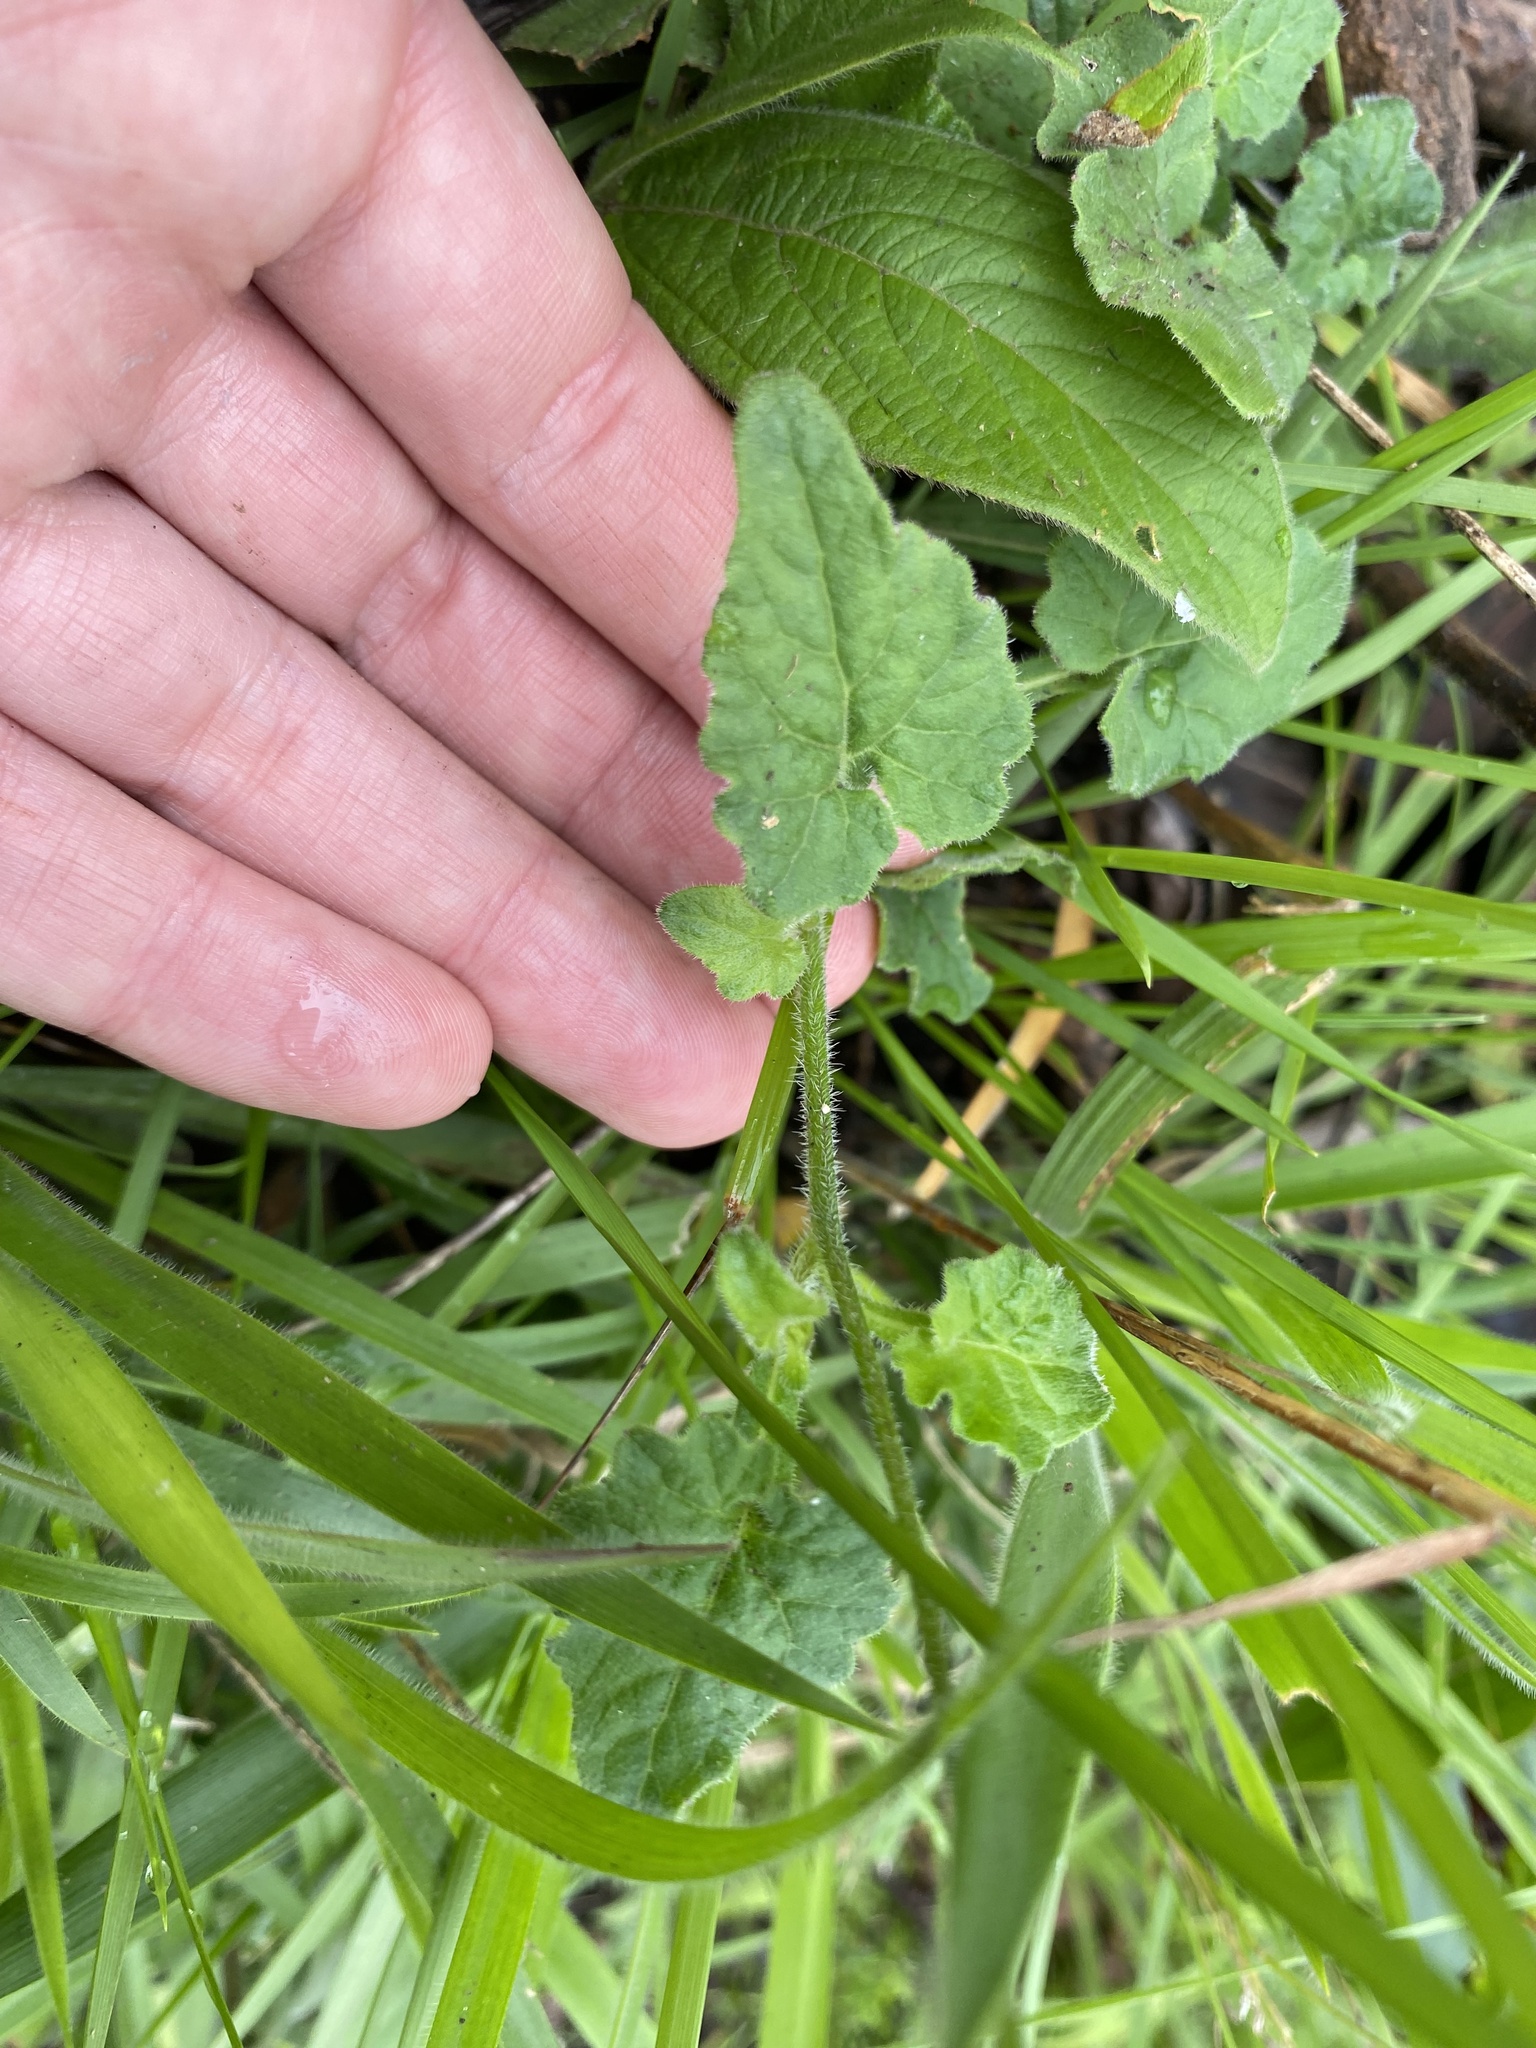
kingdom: Plantae
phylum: Tracheophyta
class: Magnoliopsida
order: Asterales
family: Campanulaceae
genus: Lobelia
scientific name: Lobelia pteropoda
